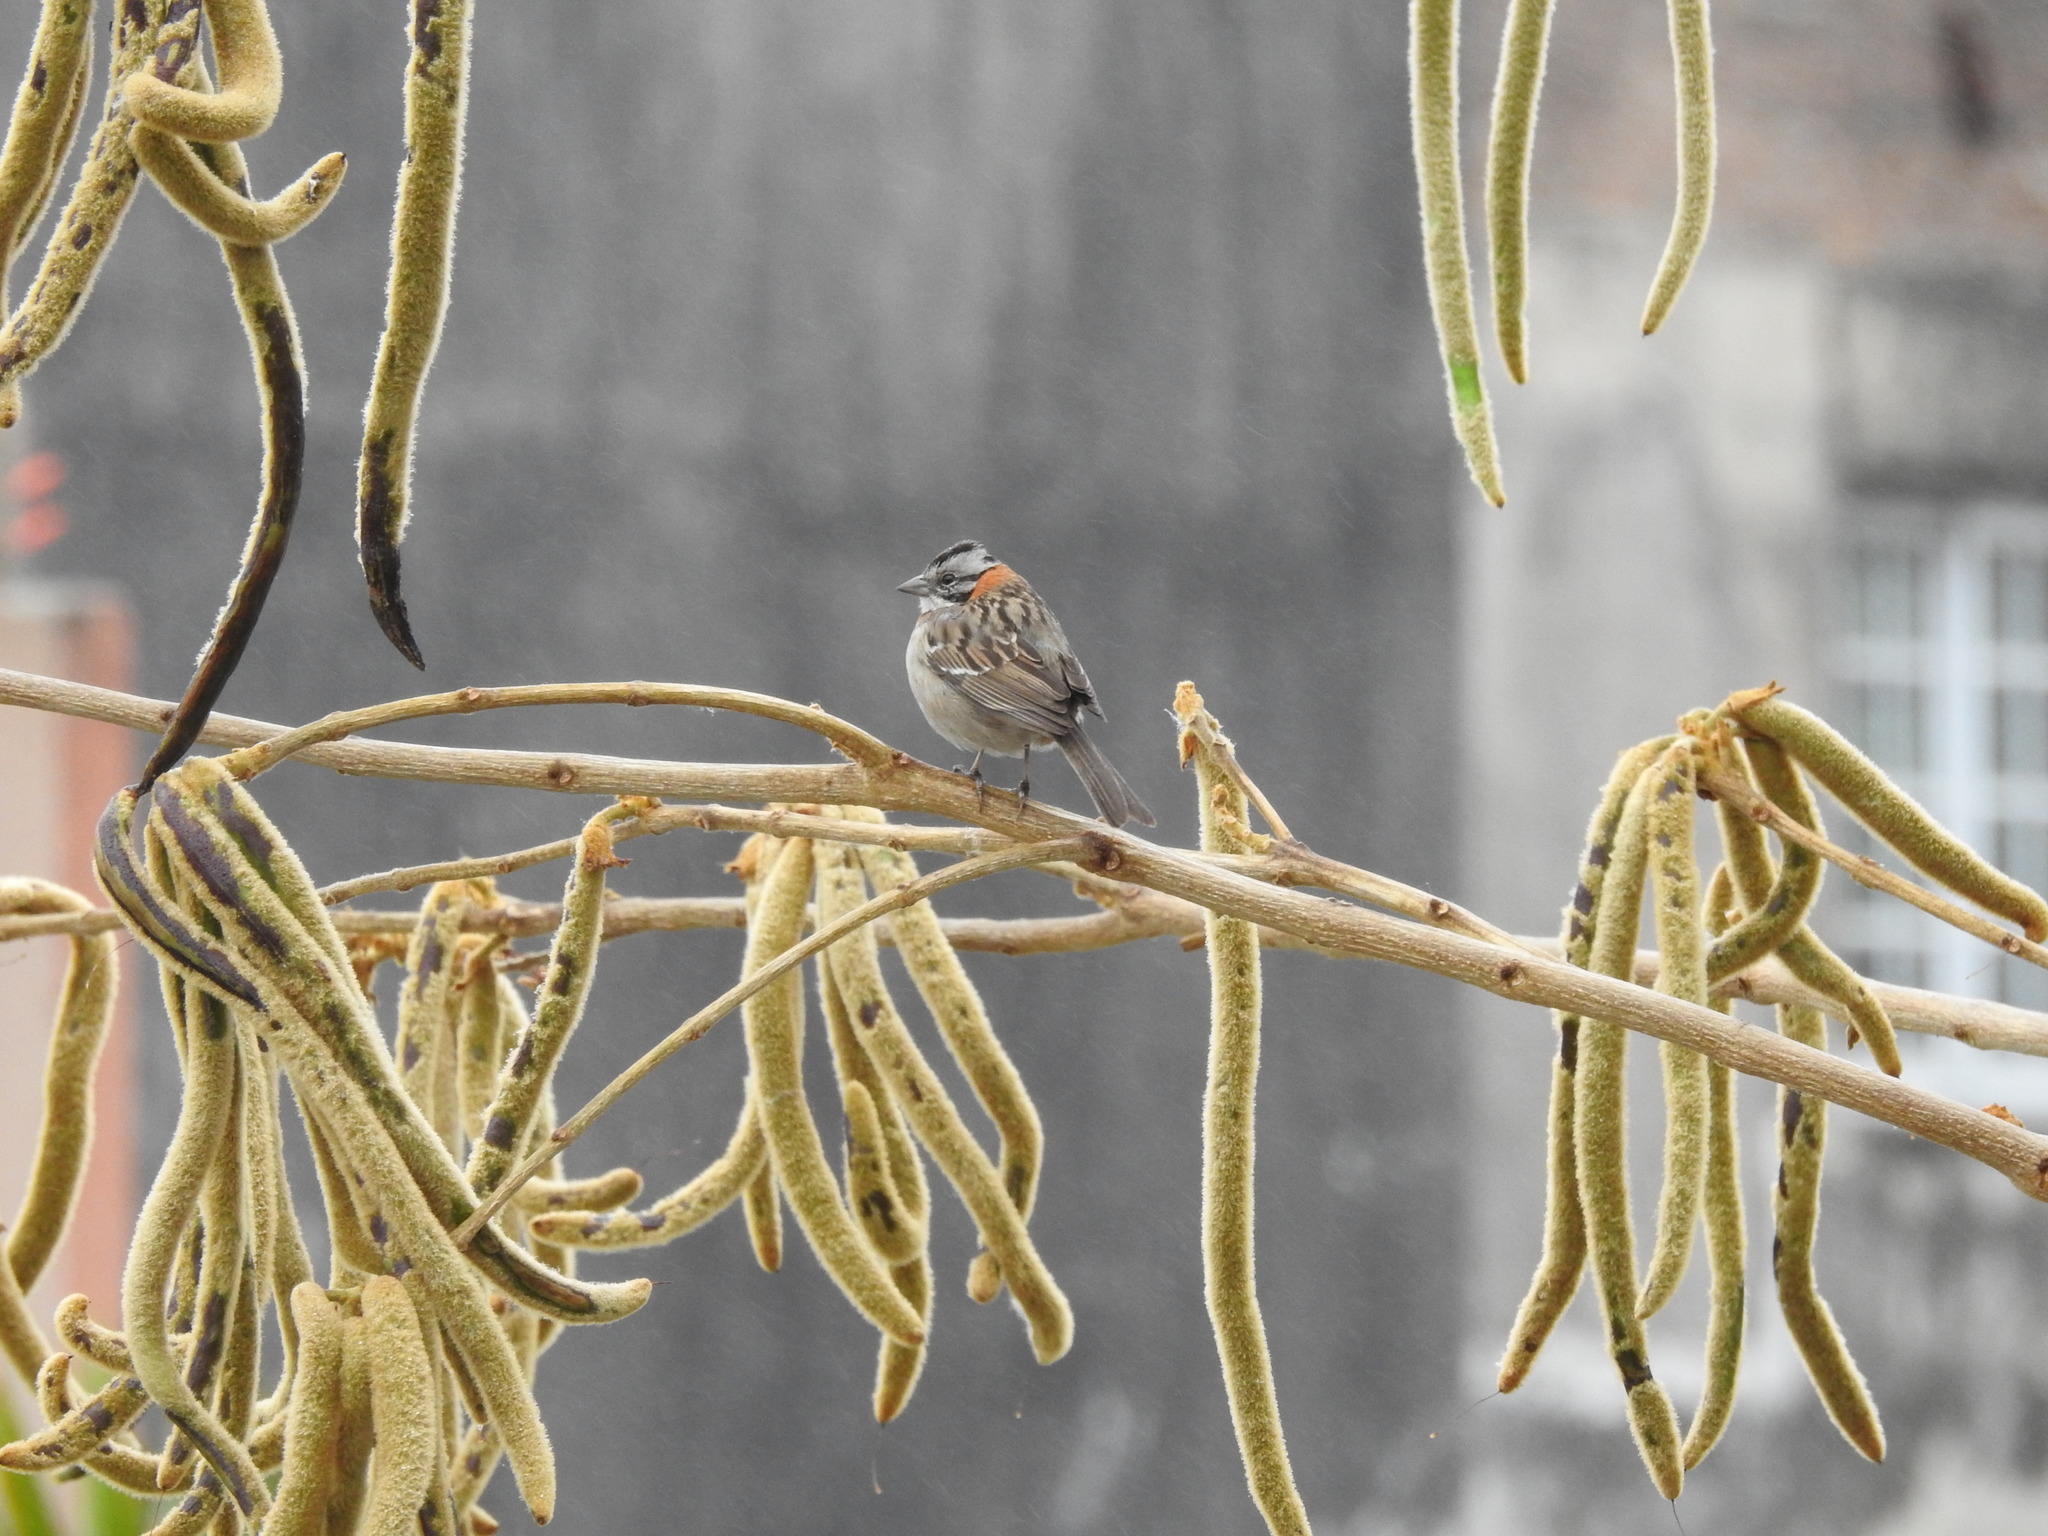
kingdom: Animalia
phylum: Chordata
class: Aves
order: Passeriformes
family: Passerellidae
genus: Zonotrichia
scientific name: Zonotrichia capensis
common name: Rufous-collared sparrow
